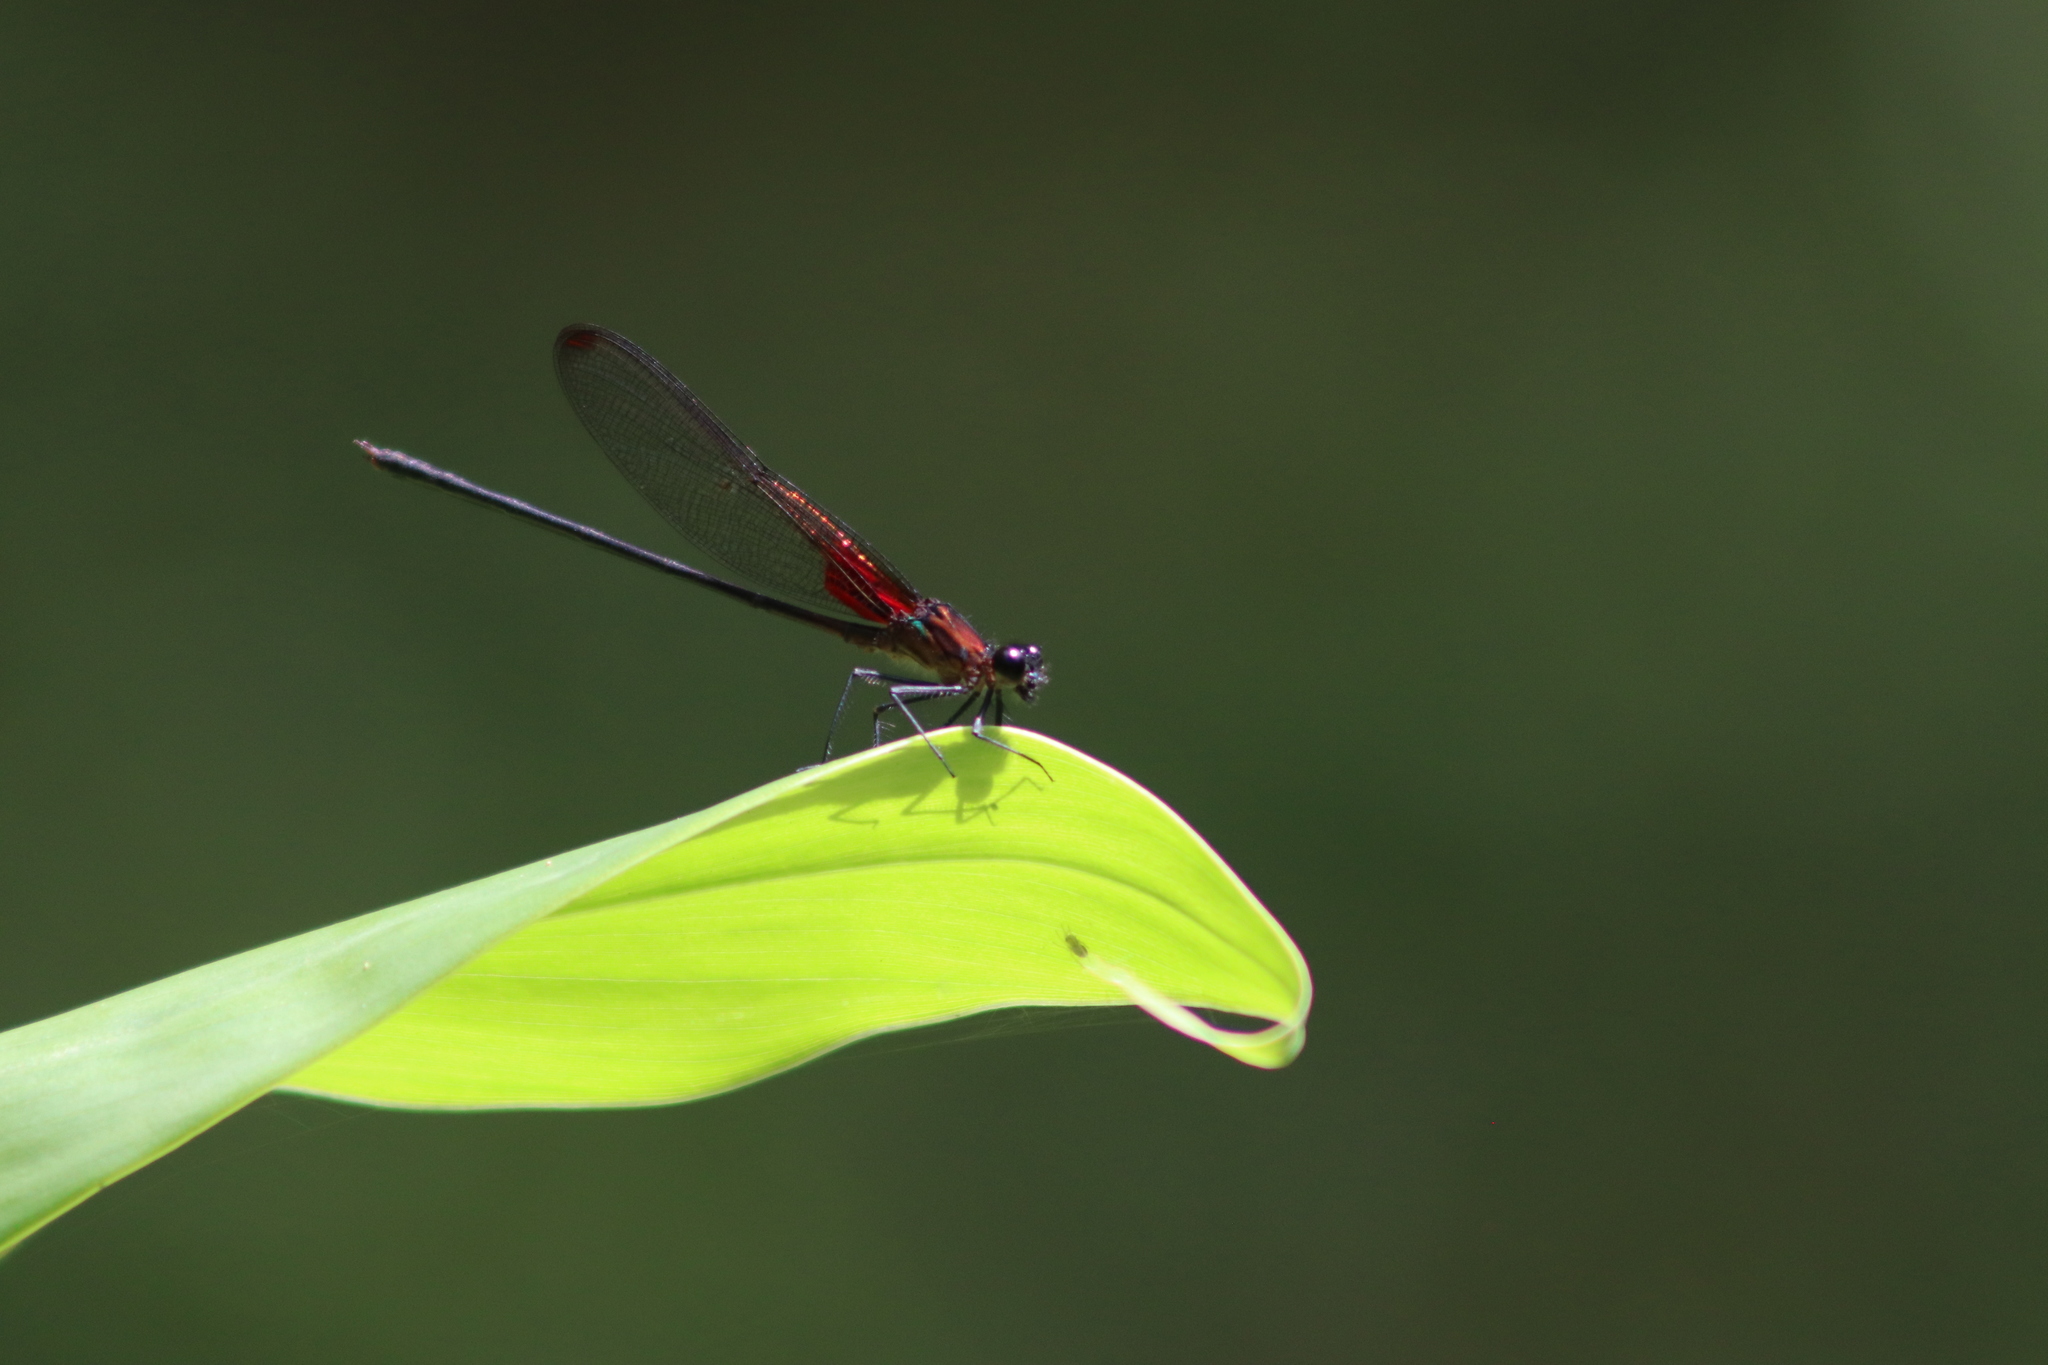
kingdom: Animalia
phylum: Arthropoda
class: Insecta
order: Odonata
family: Calopterygidae
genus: Hetaerina
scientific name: Hetaerina cruentata
